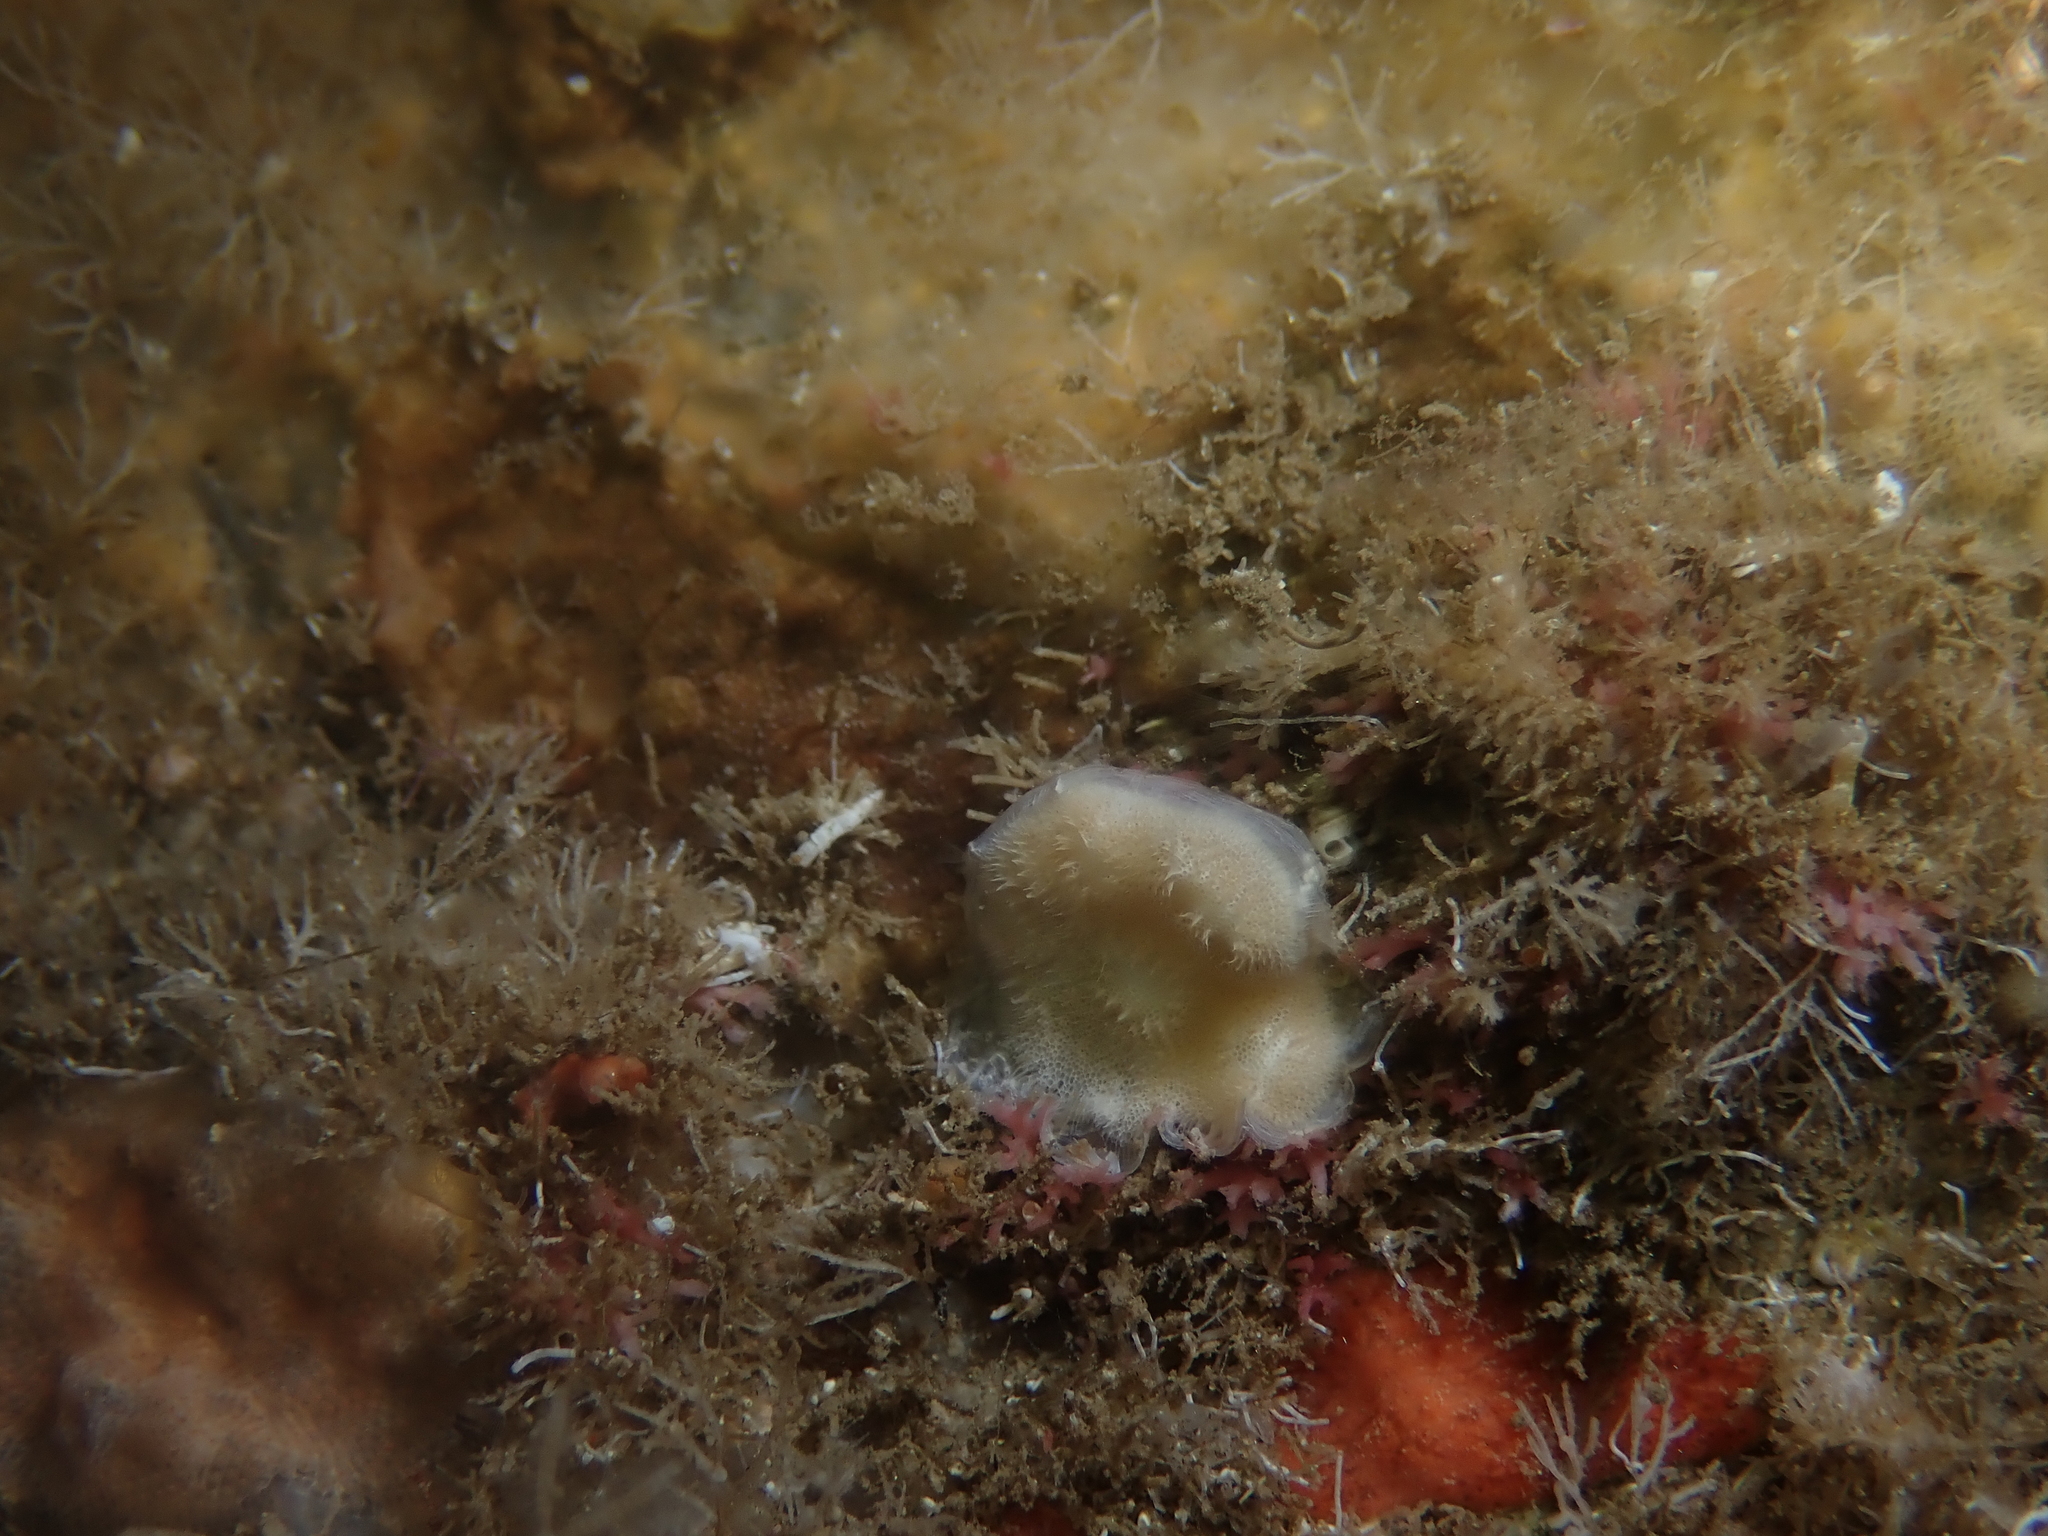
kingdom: Animalia
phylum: Bryozoa
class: Stenolaemata
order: Cyclostomatida
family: Lichenoporidae
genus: Disporella
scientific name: Disporella hispida
